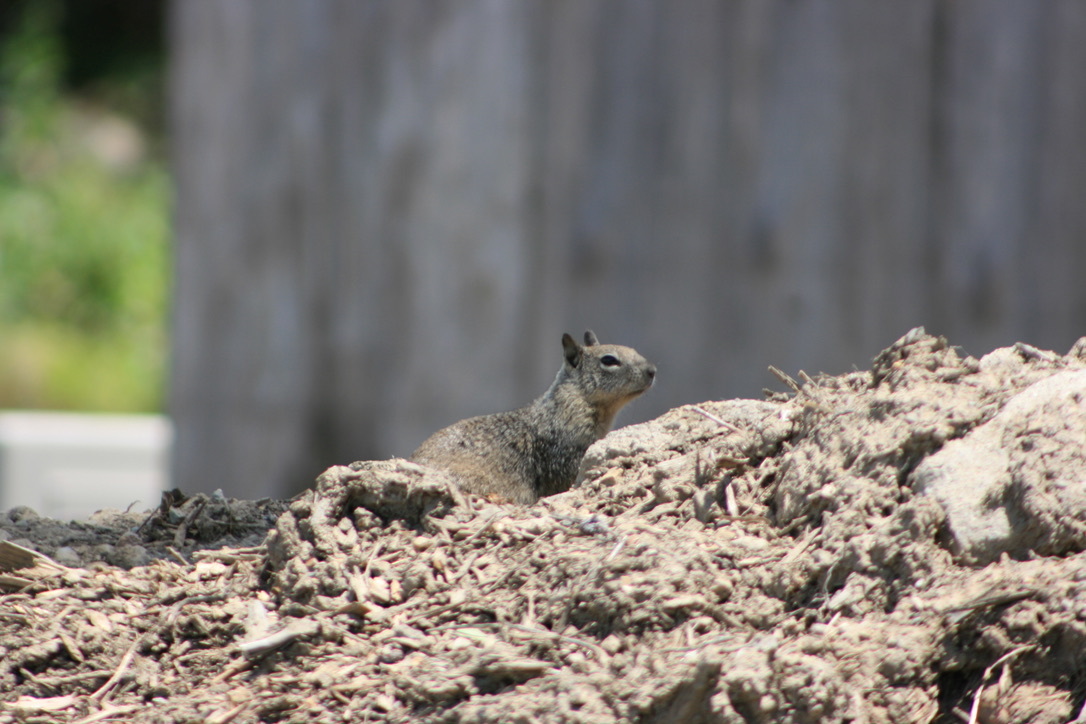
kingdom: Animalia
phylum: Chordata
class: Mammalia
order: Rodentia
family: Sciuridae
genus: Otospermophilus
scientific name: Otospermophilus beecheyi
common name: California ground squirrel
